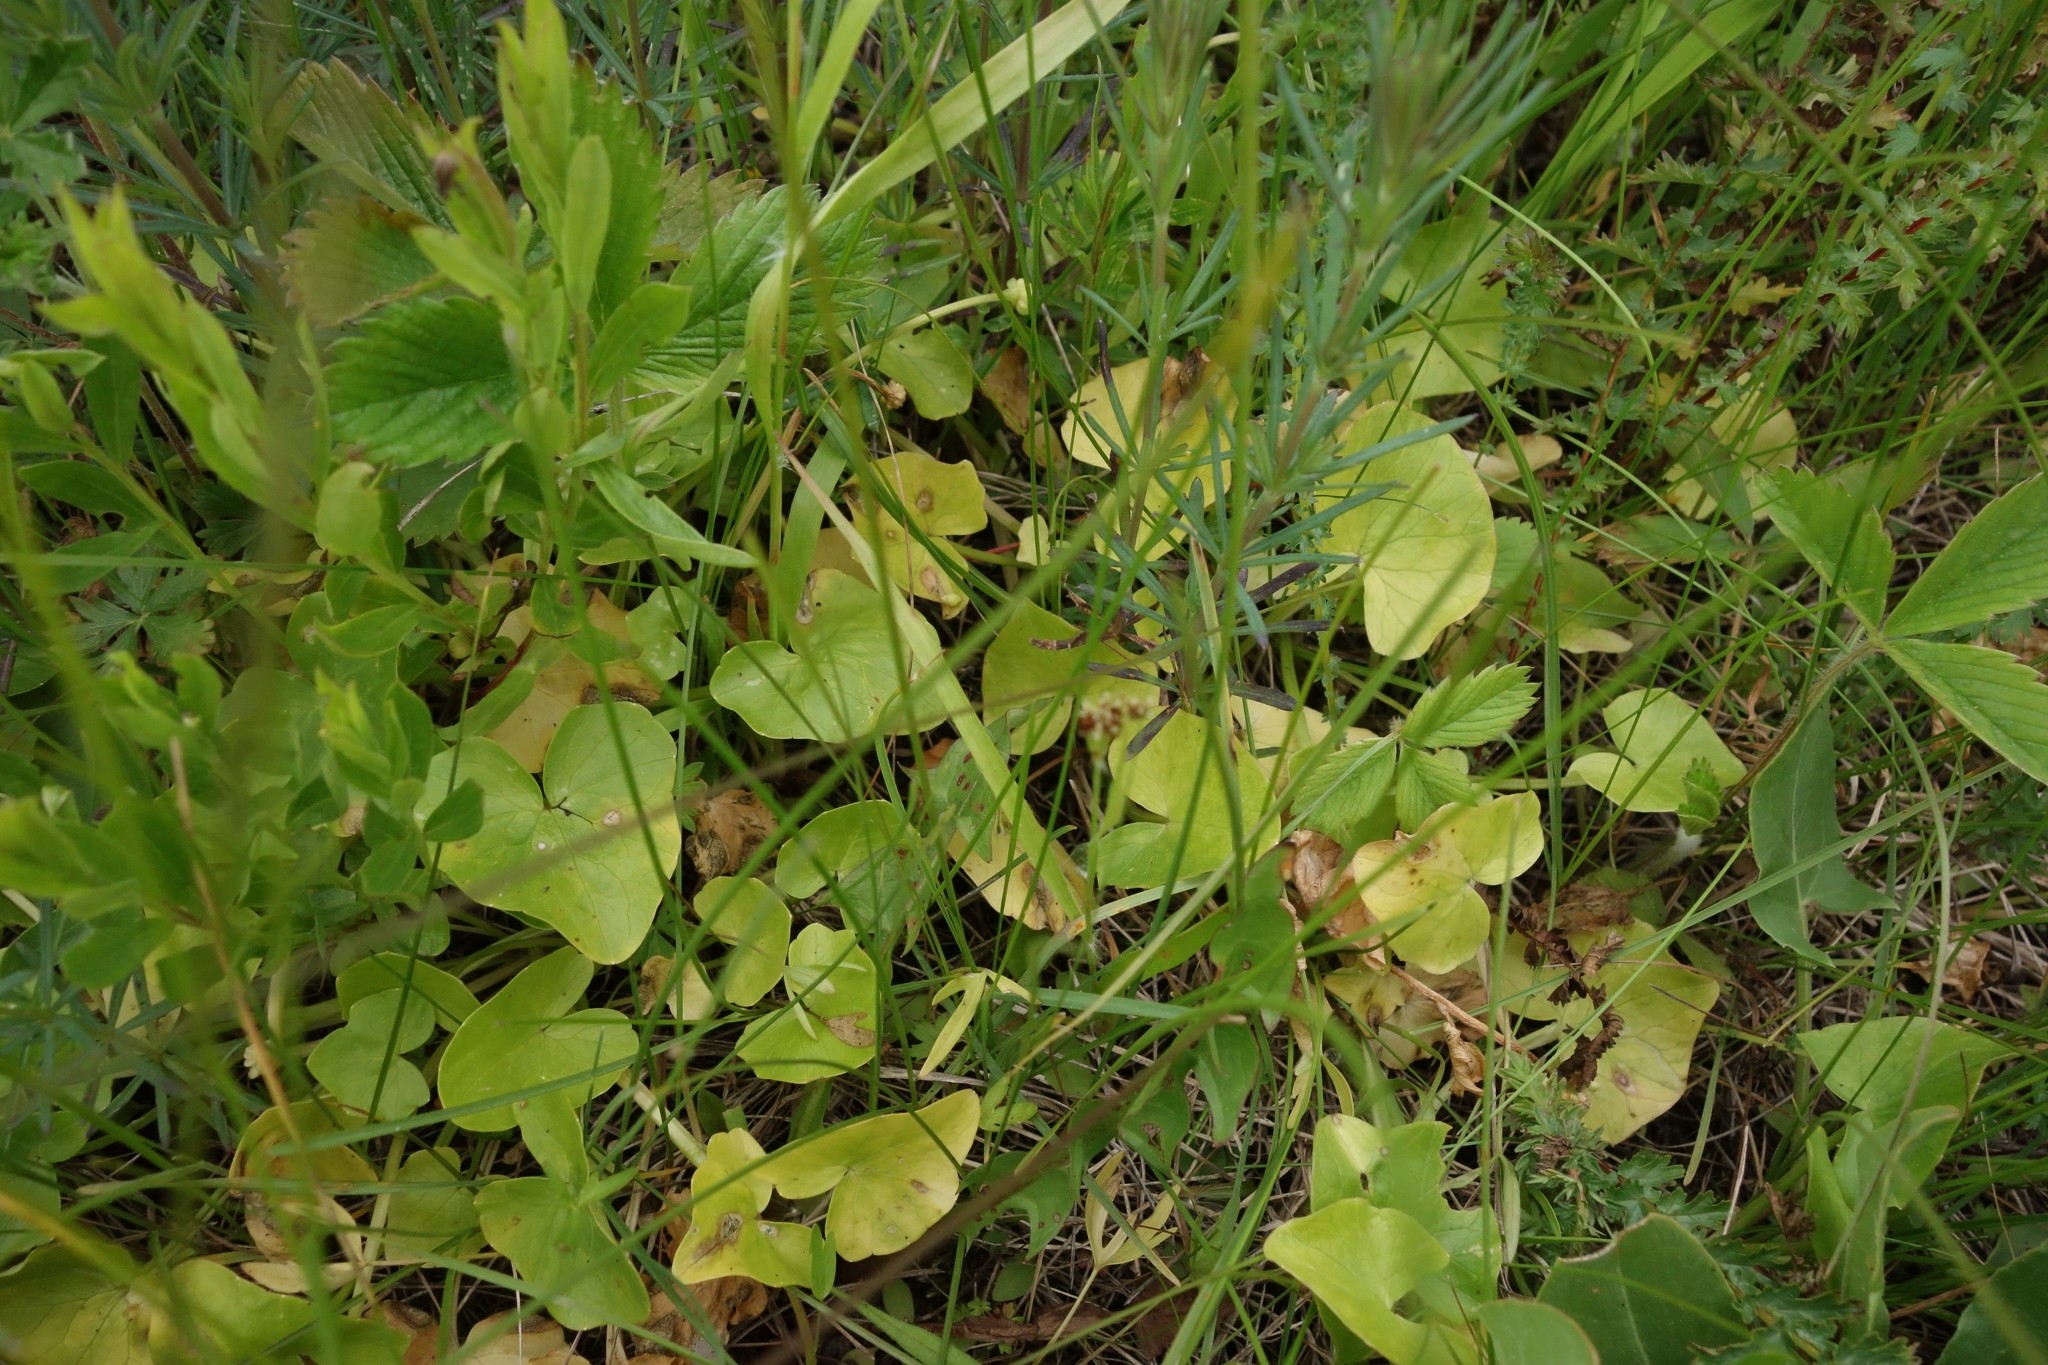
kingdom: Plantae
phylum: Tracheophyta
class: Magnoliopsida
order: Ranunculales
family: Ranunculaceae
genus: Ficaria
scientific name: Ficaria verna
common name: Lesser celandine
